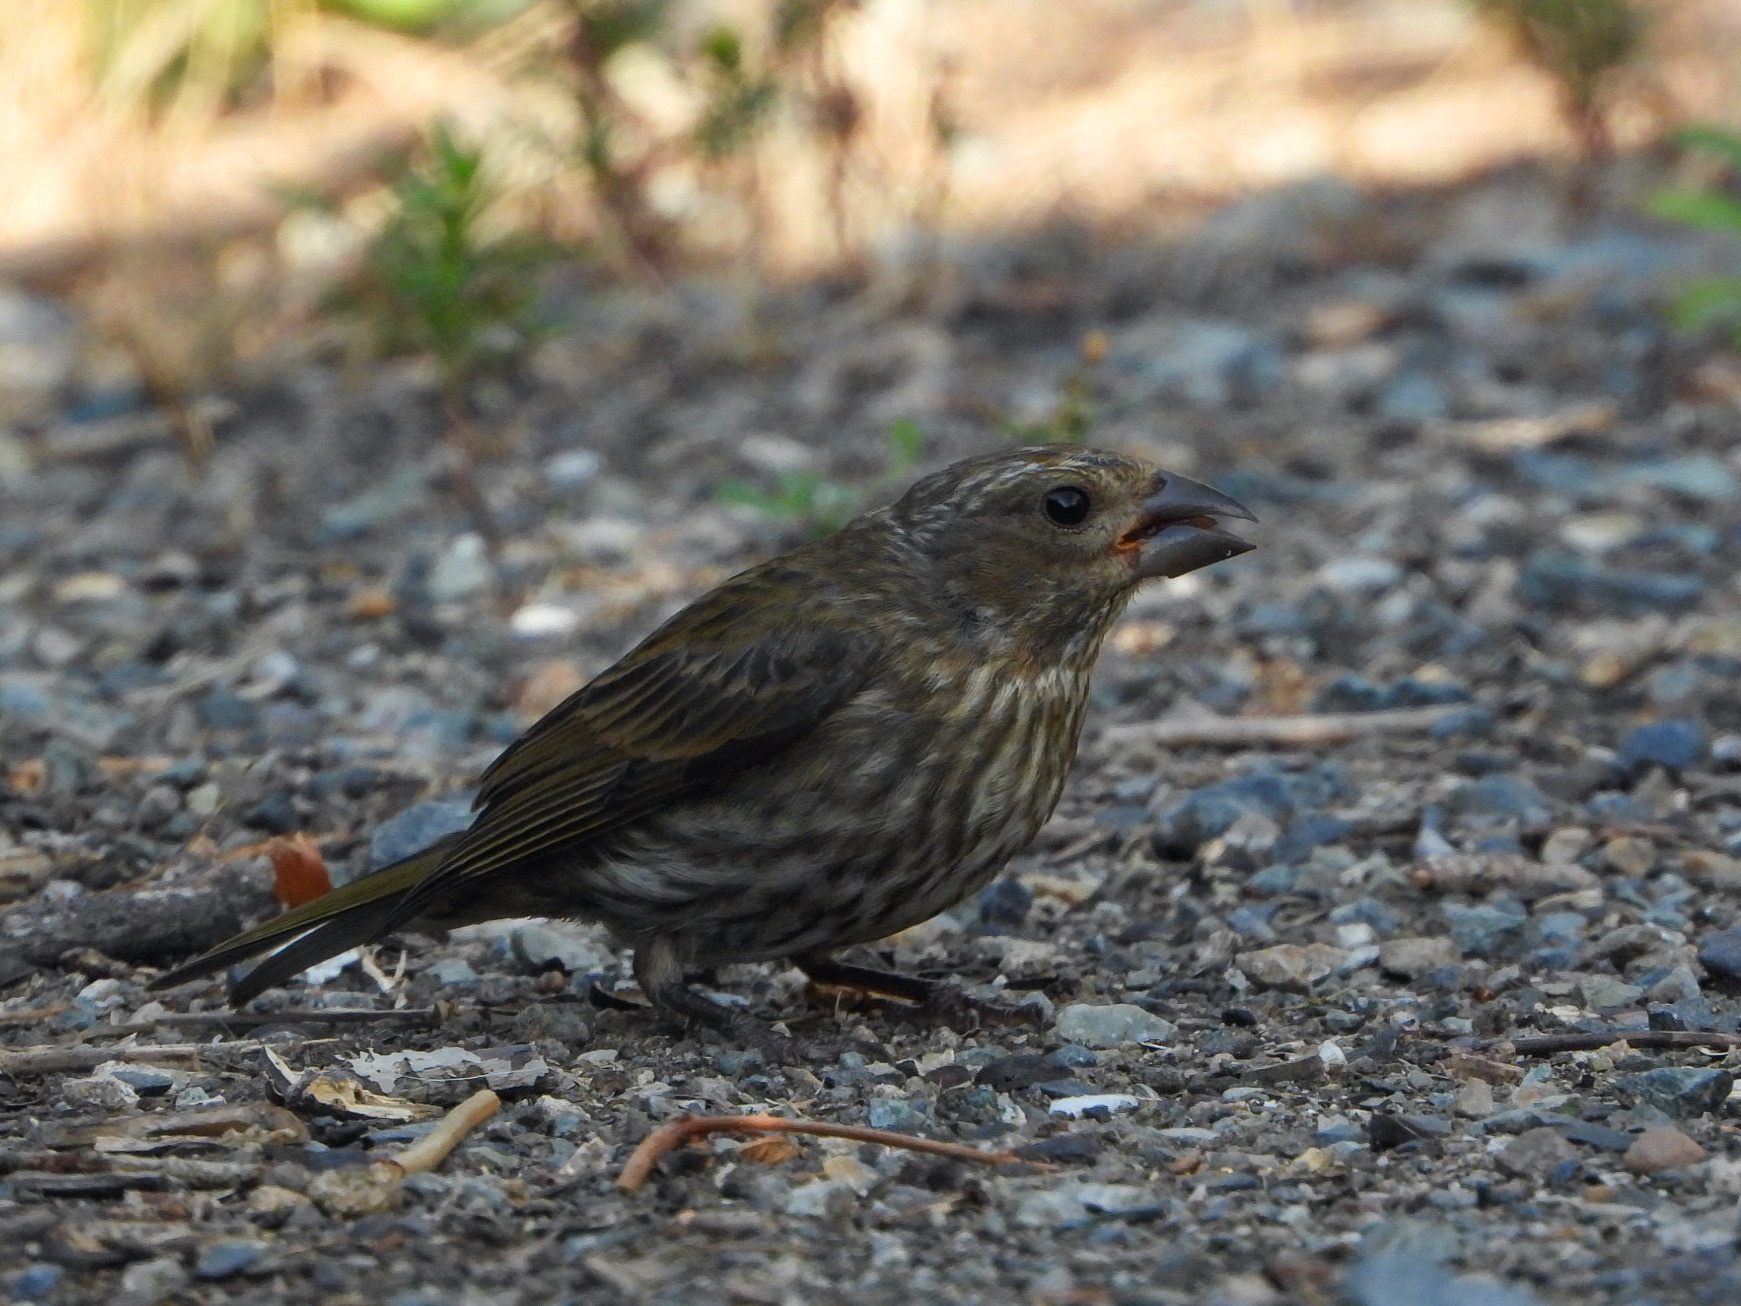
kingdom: Animalia
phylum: Chordata
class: Aves
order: Passeriformes
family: Fringillidae
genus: Haemorhous
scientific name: Haemorhous purpureus
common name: Purple finch
